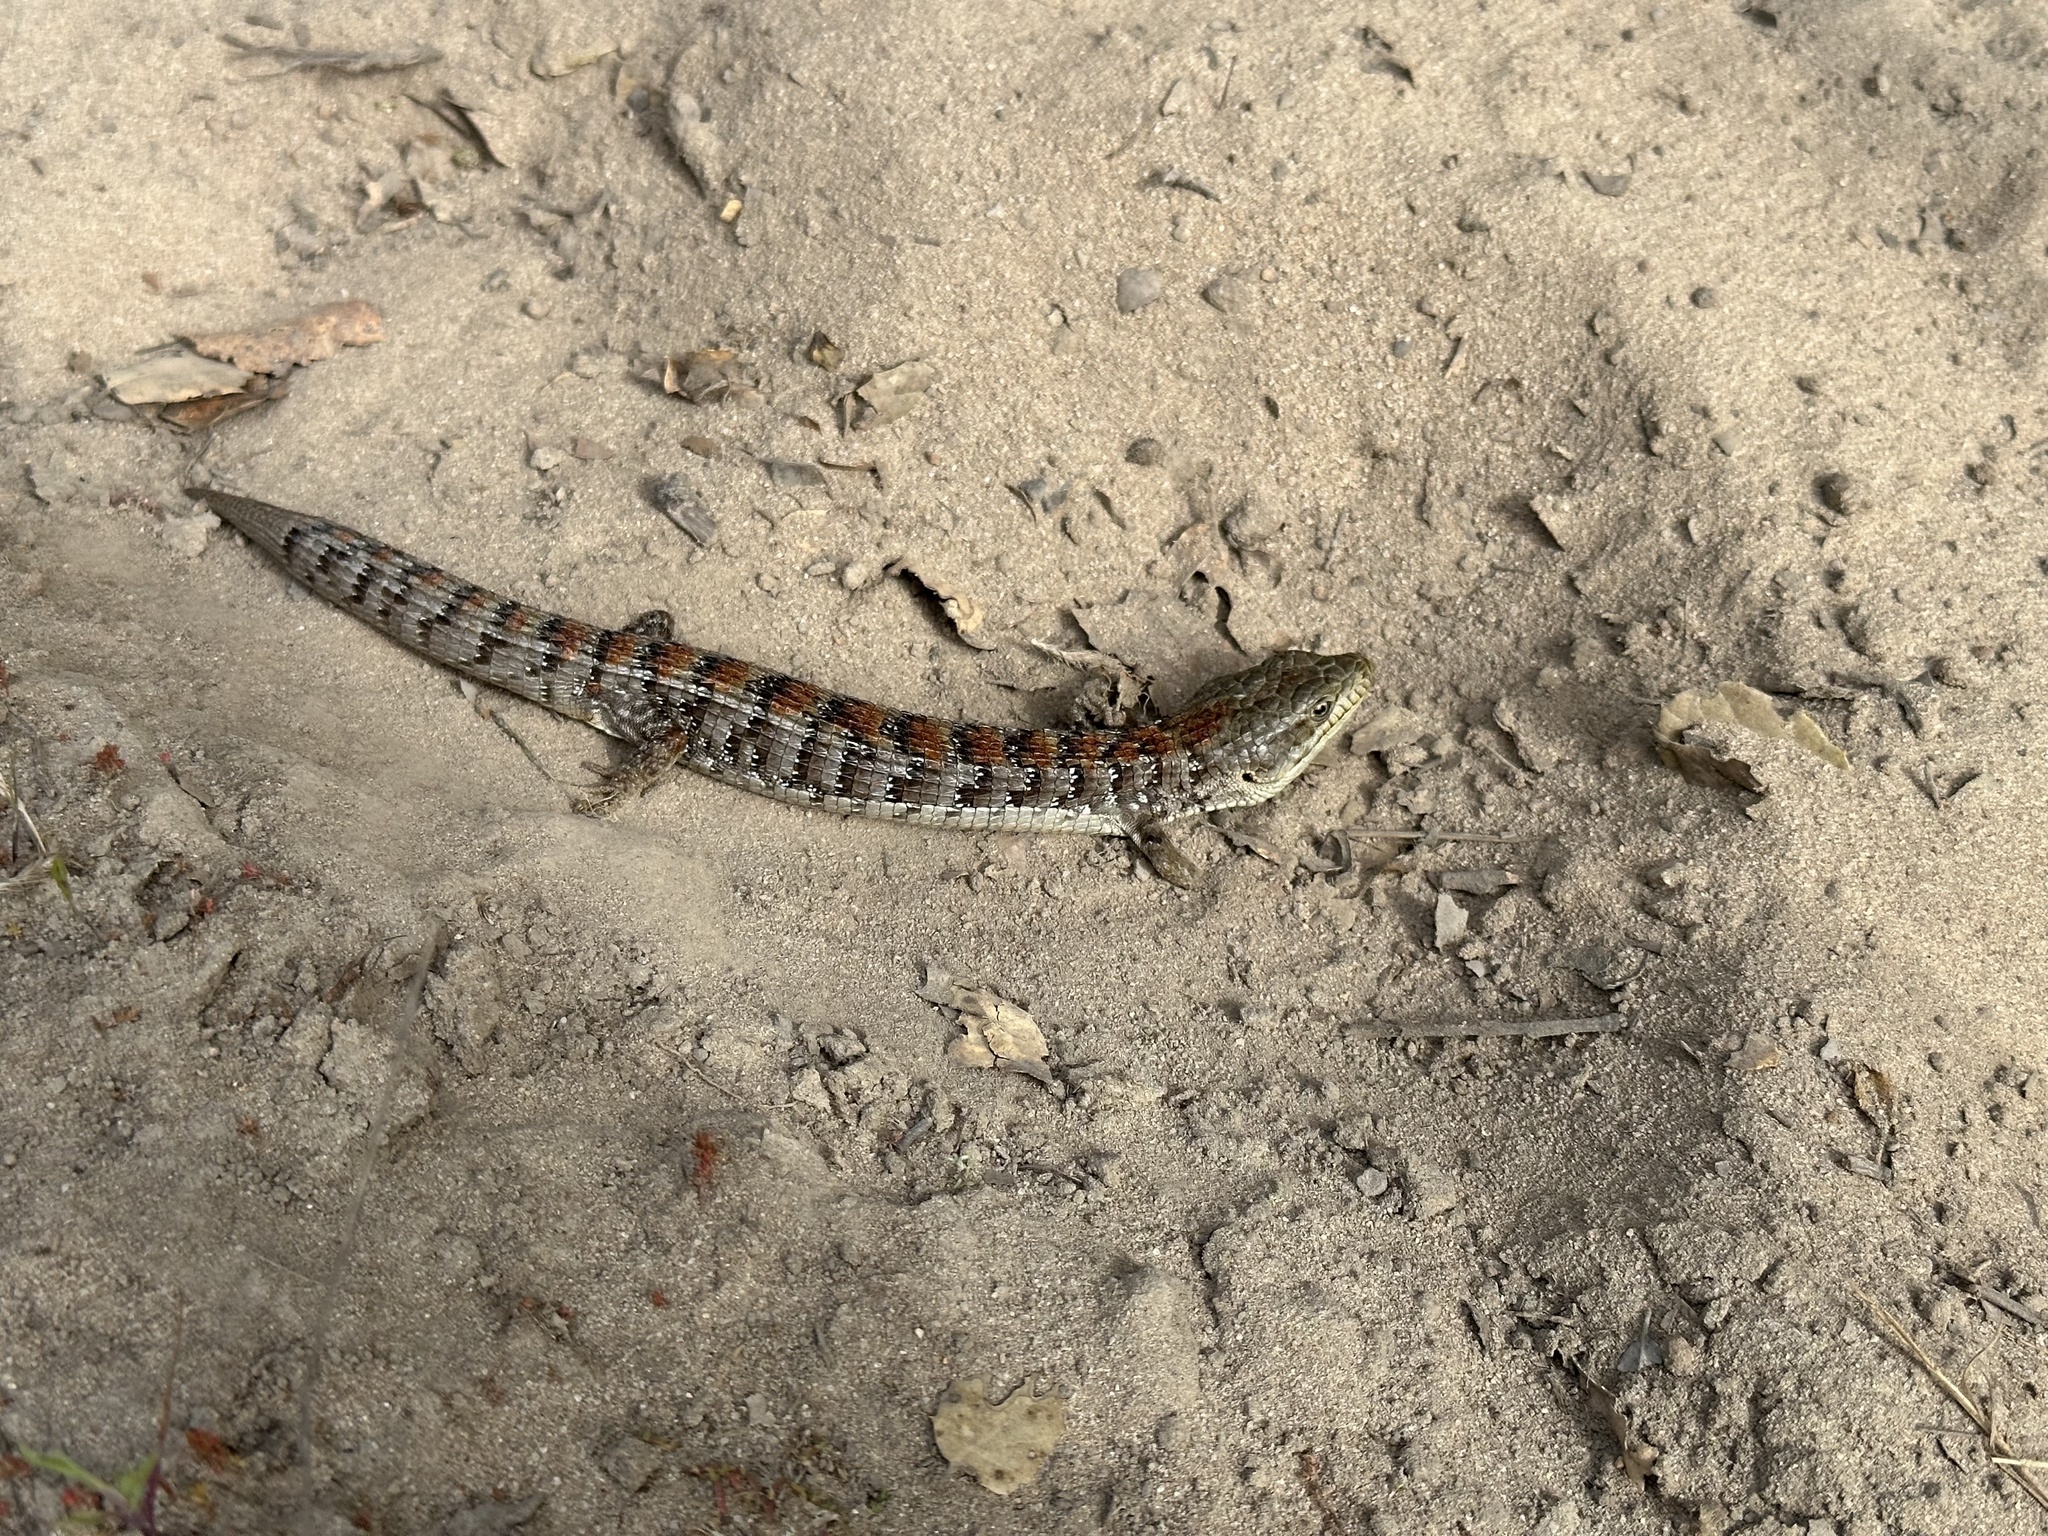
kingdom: Animalia
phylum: Chordata
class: Squamata
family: Anguidae
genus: Elgaria
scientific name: Elgaria multicarinata
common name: Southern alligator lizard
